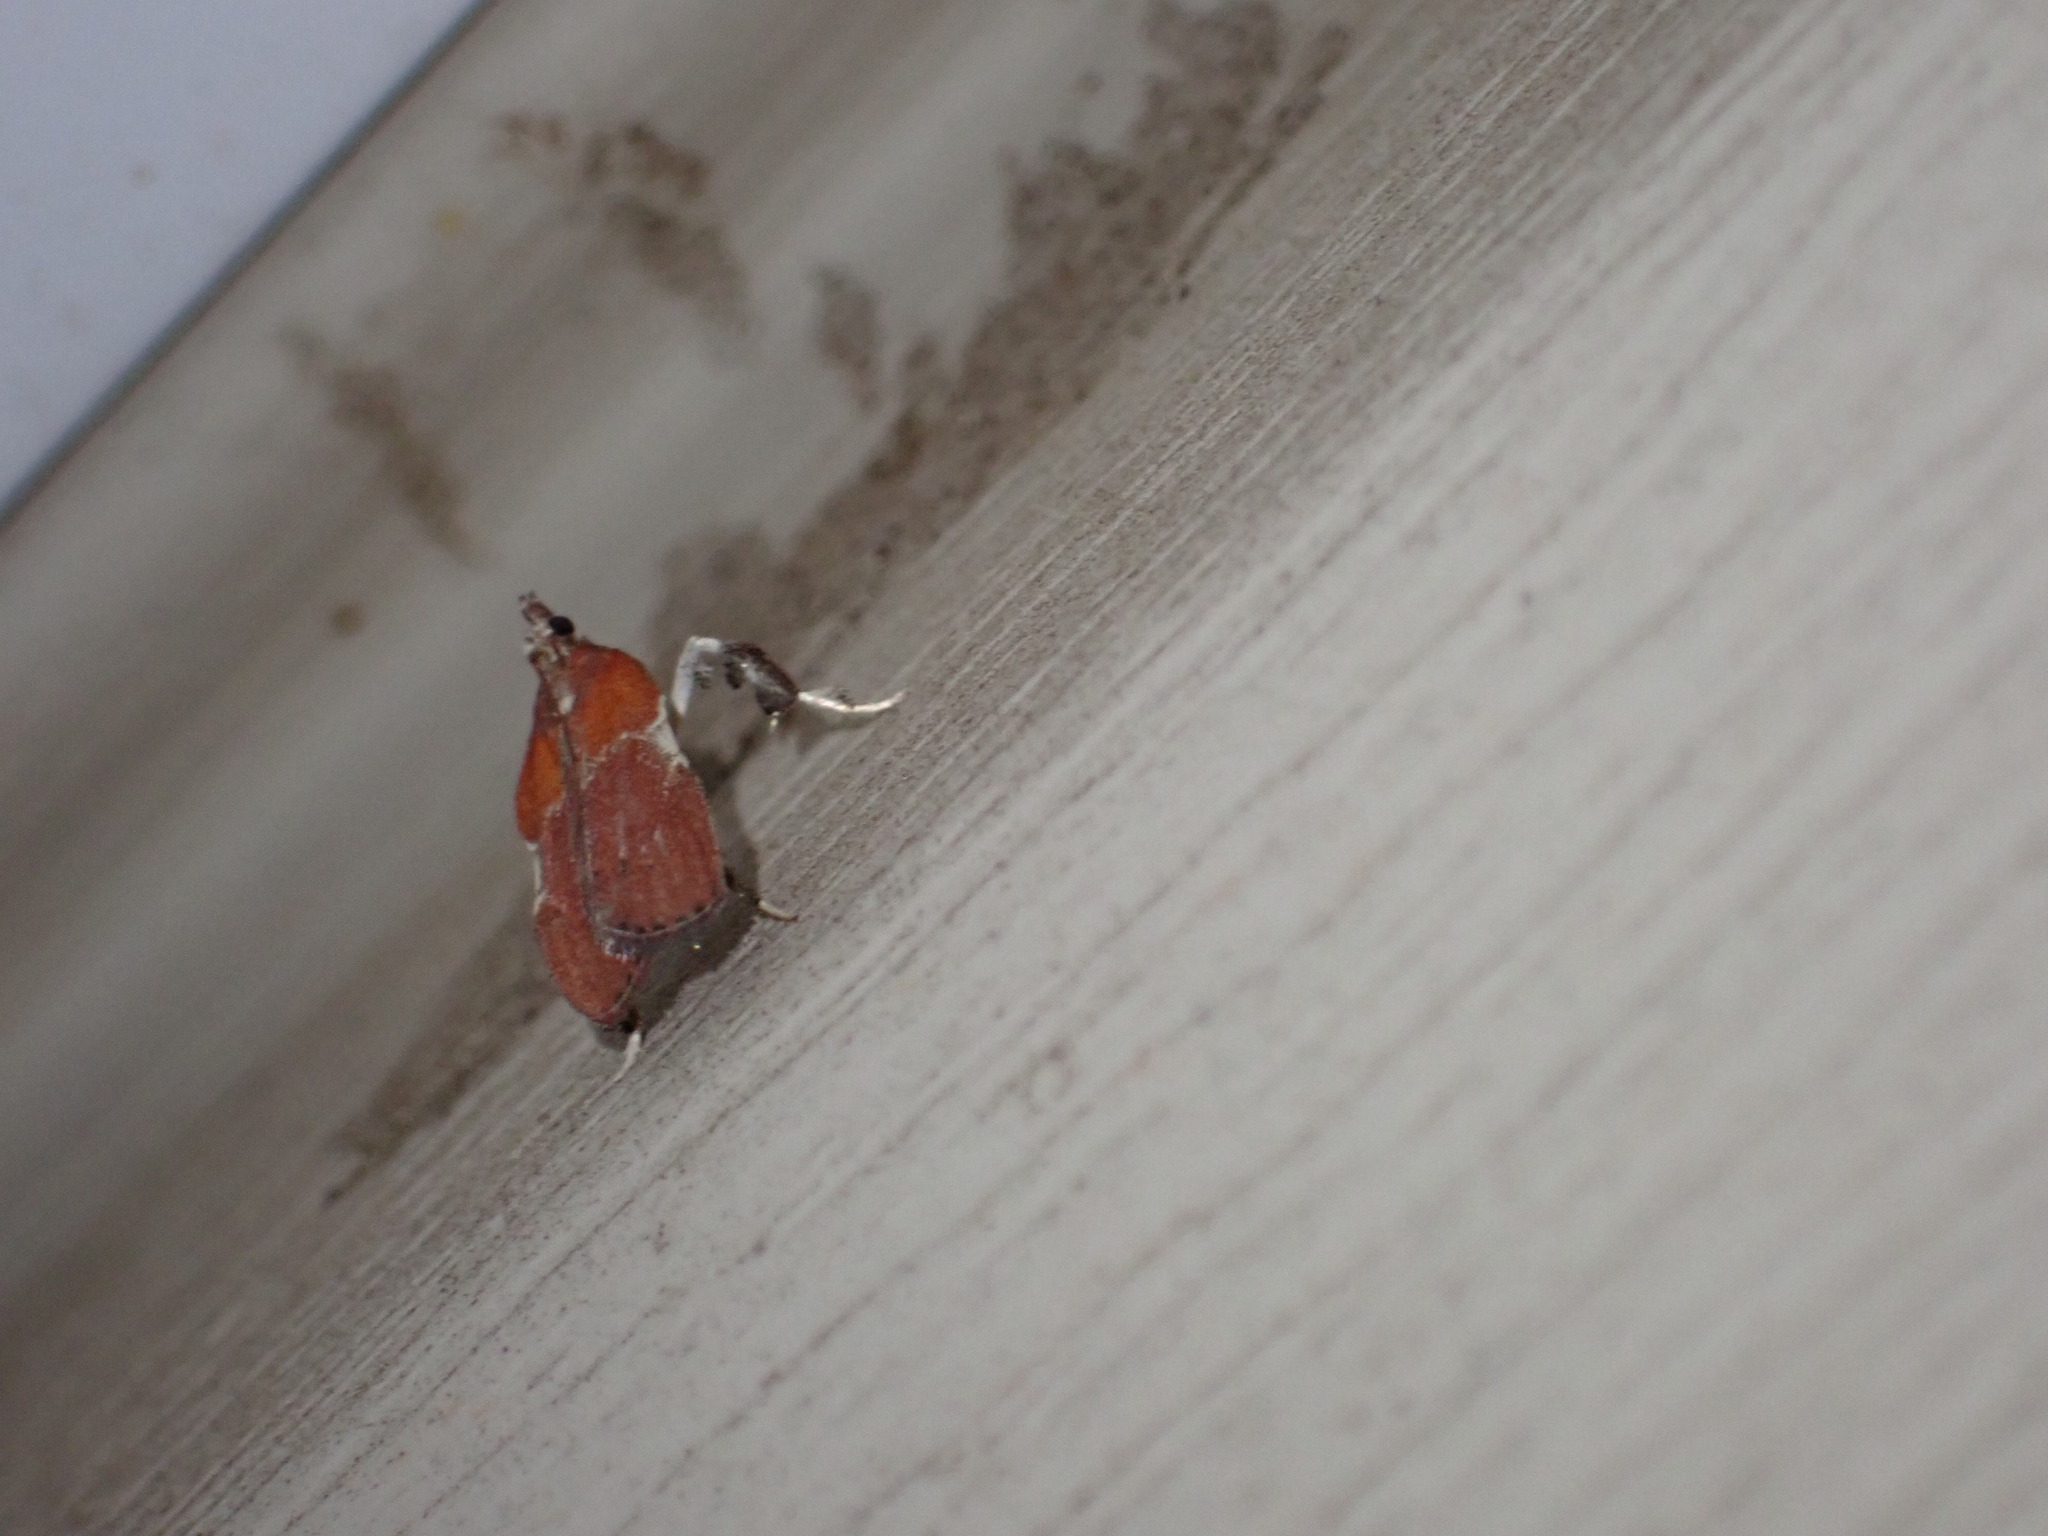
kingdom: Animalia
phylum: Arthropoda
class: Insecta
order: Lepidoptera
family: Pyralidae
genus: Galasa
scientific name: Galasa nigrinodis
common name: Boxwood leaftier moth
